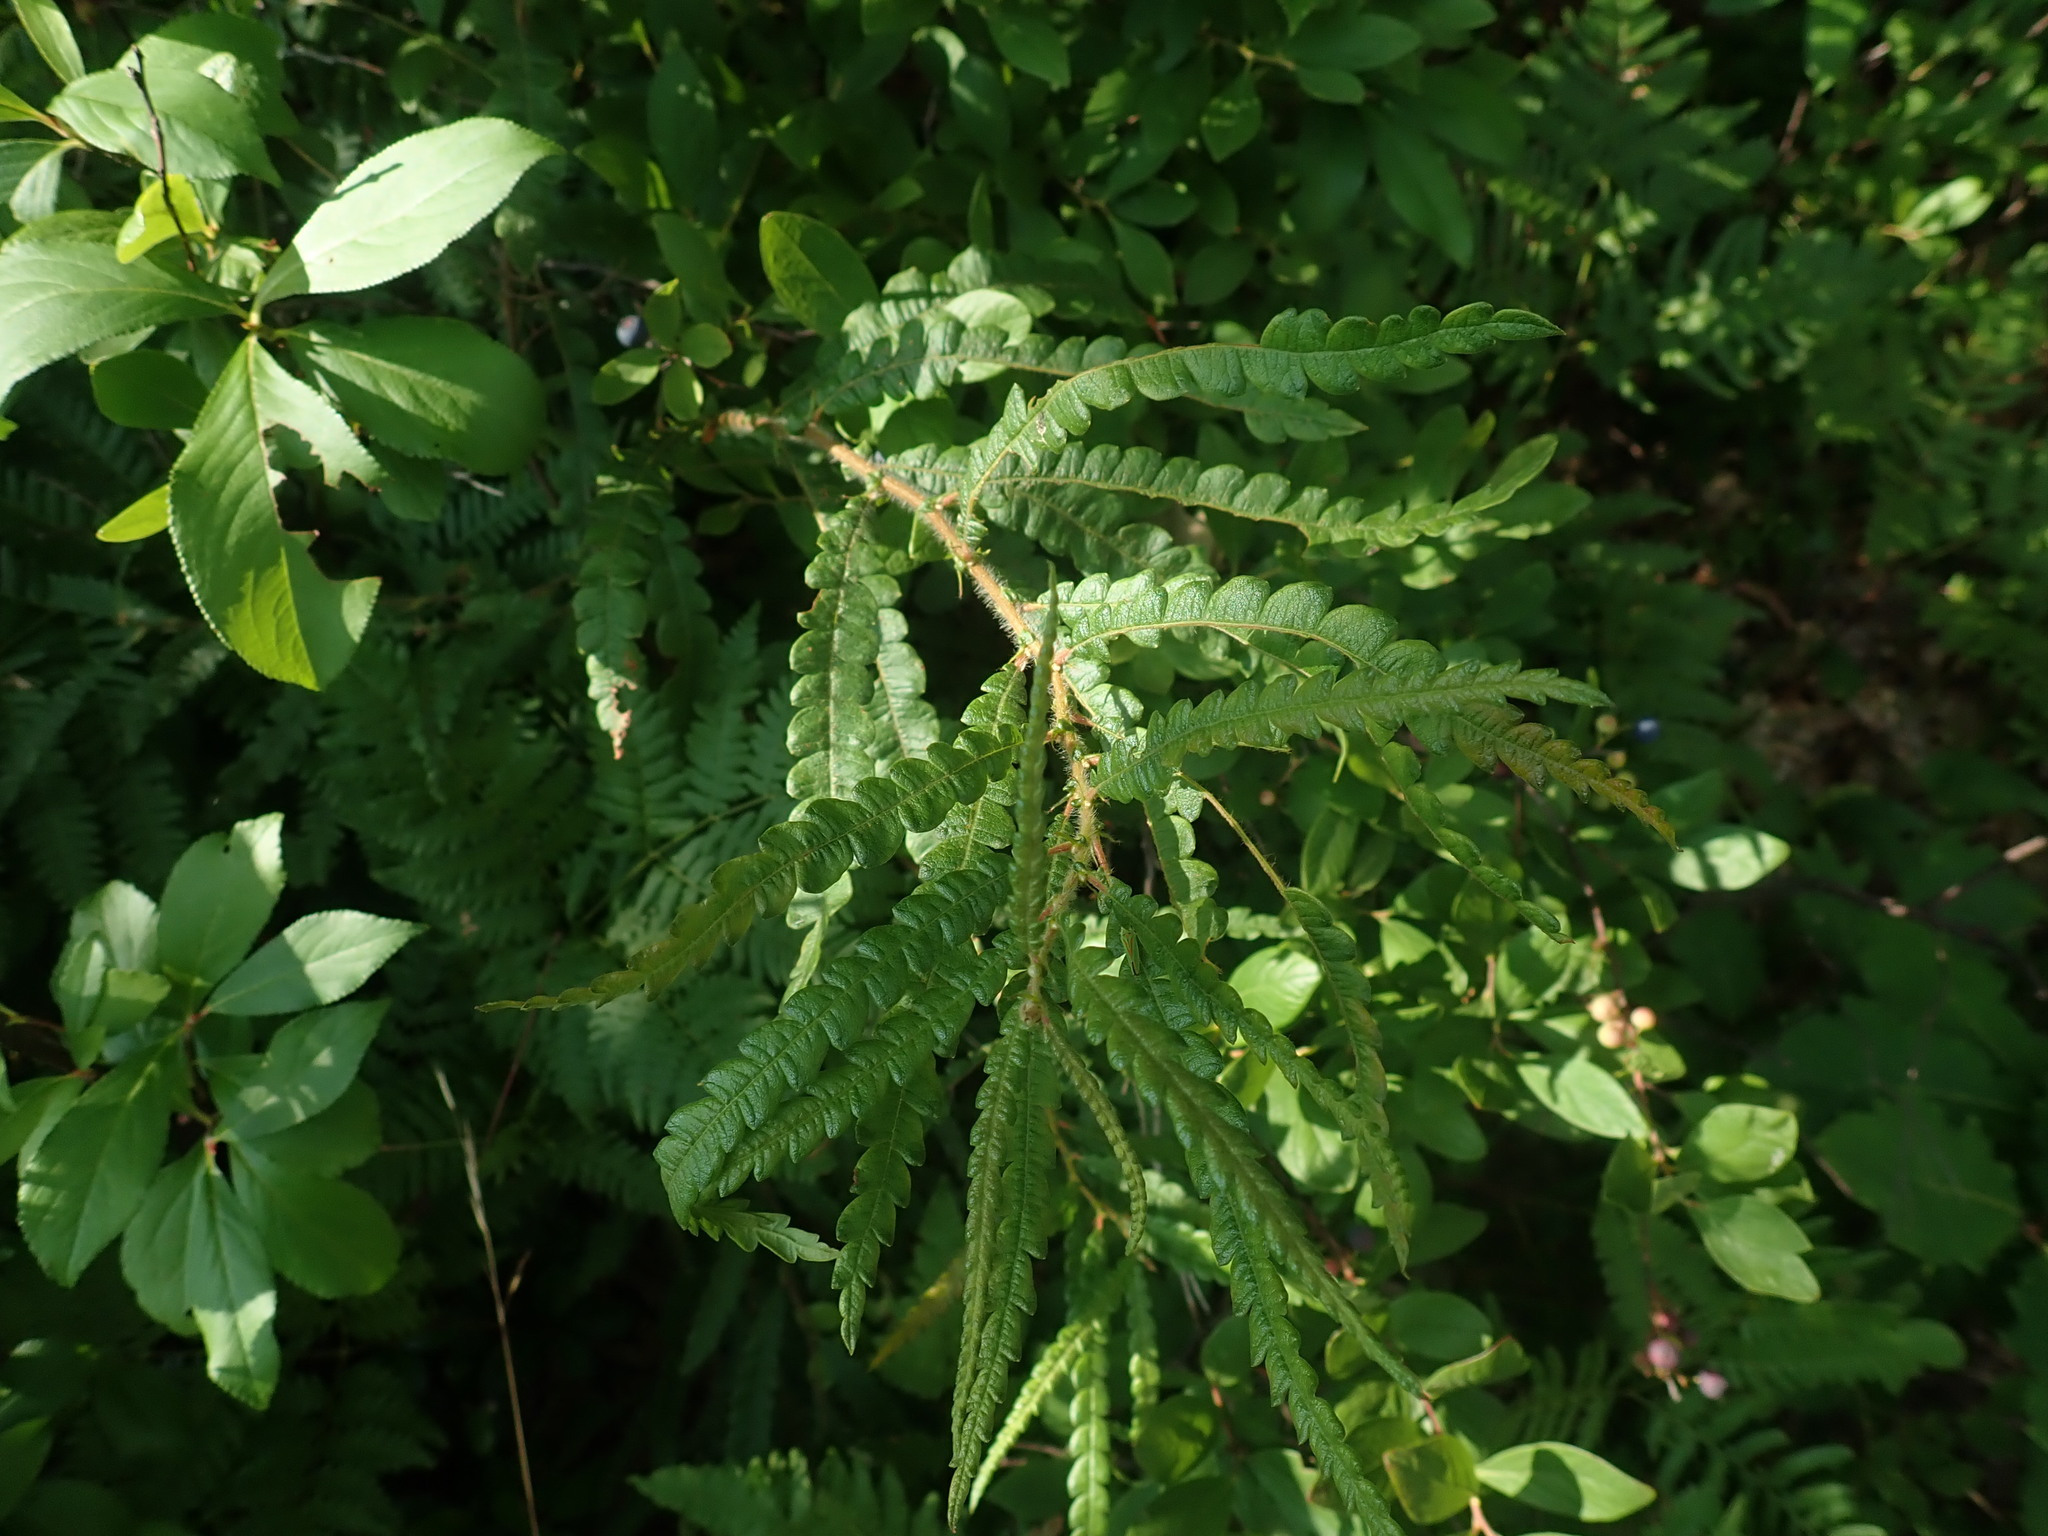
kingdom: Plantae
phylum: Tracheophyta
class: Magnoliopsida
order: Fagales
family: Myricaceae
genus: Comptonia
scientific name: Comptonia peregrina
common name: Sweet-fern
